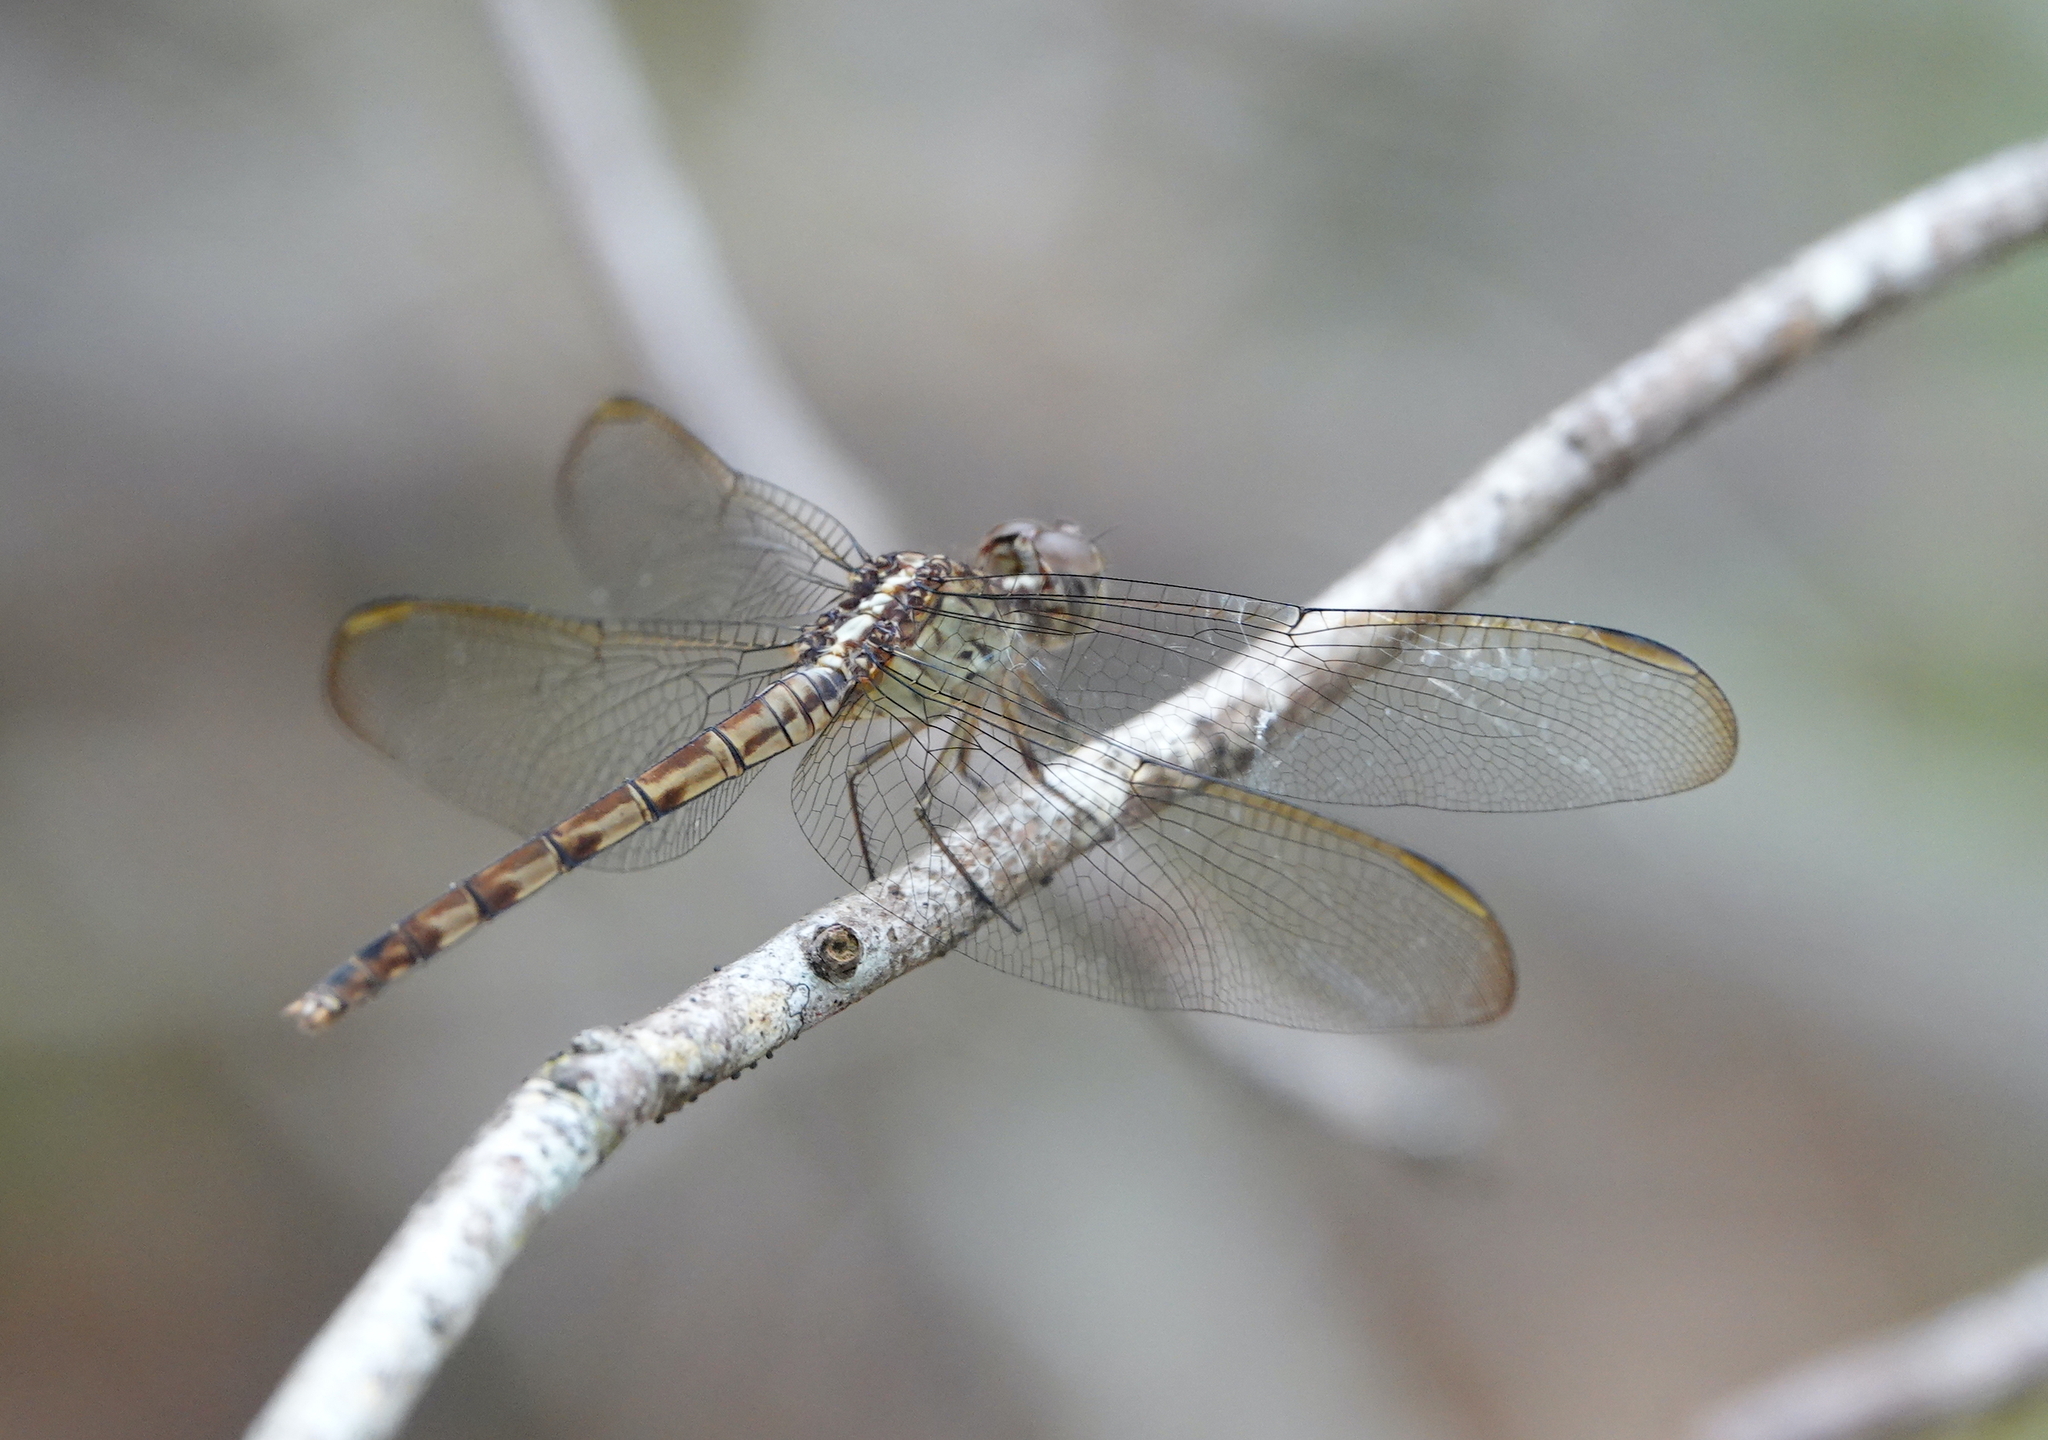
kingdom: Animalia
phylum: Arthropoda
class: Insecta
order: Odonata
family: Libellulidae
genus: Erythrodiplax
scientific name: Erythrodiplax umbrata
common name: Band-winged dragonlet
